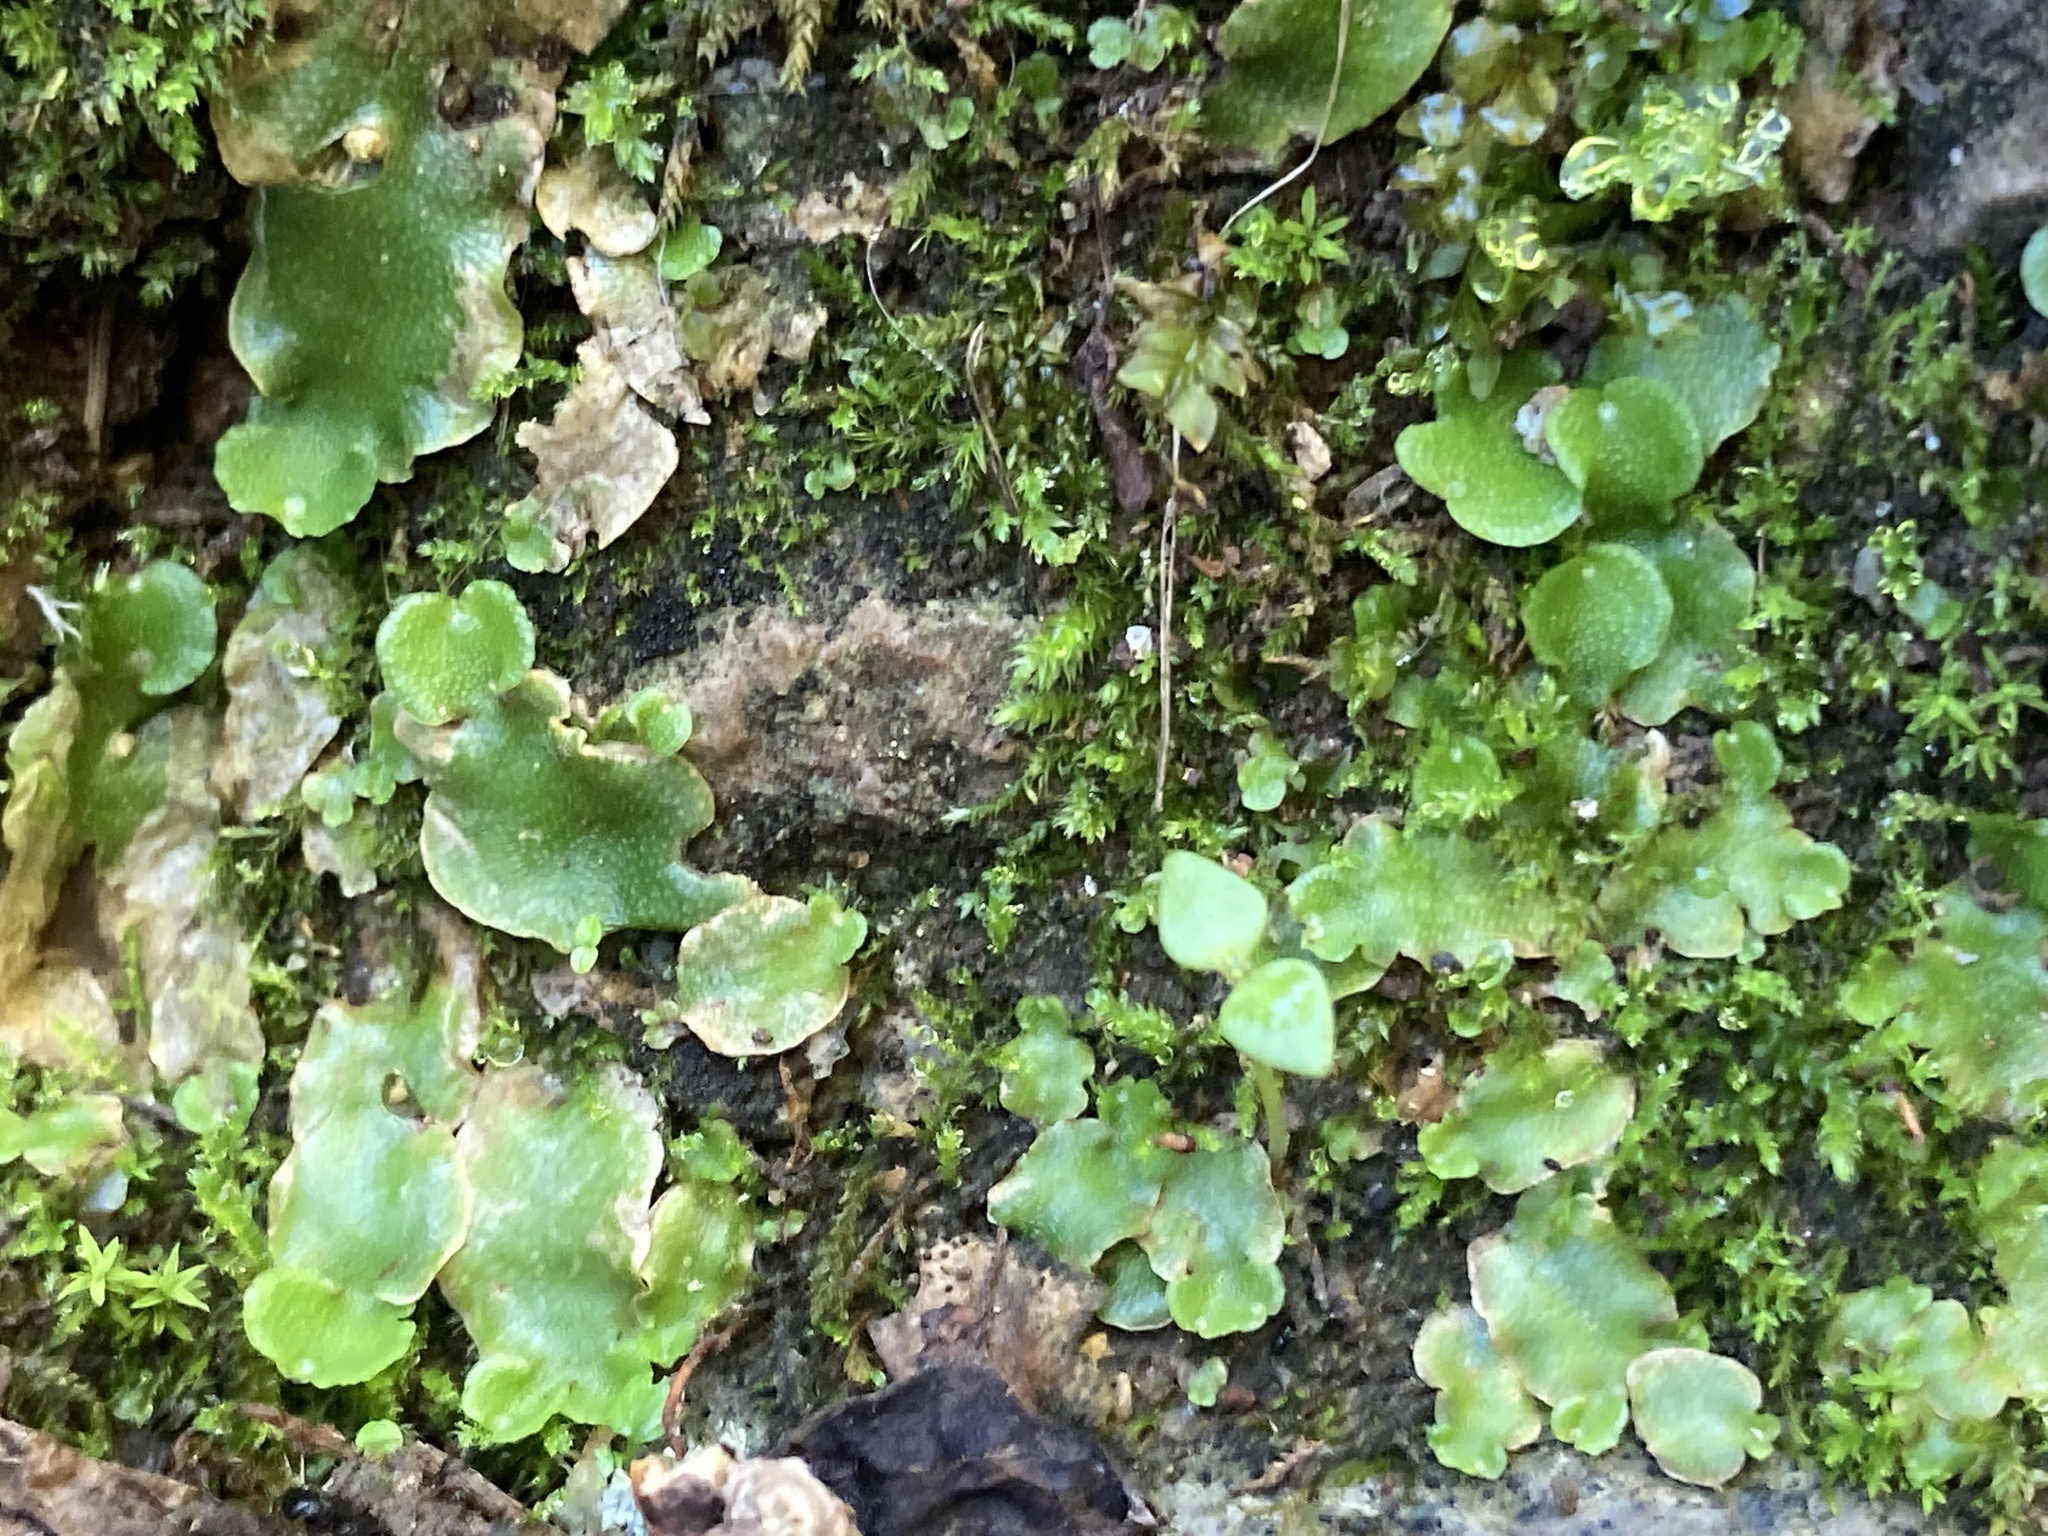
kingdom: Plantae
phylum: Marchantiophyta
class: Marchantiopsida
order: Lunulariales
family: Lunulariaceae
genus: Lunularia
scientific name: Lunularia cruciata
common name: Crescent-cup liverwort
